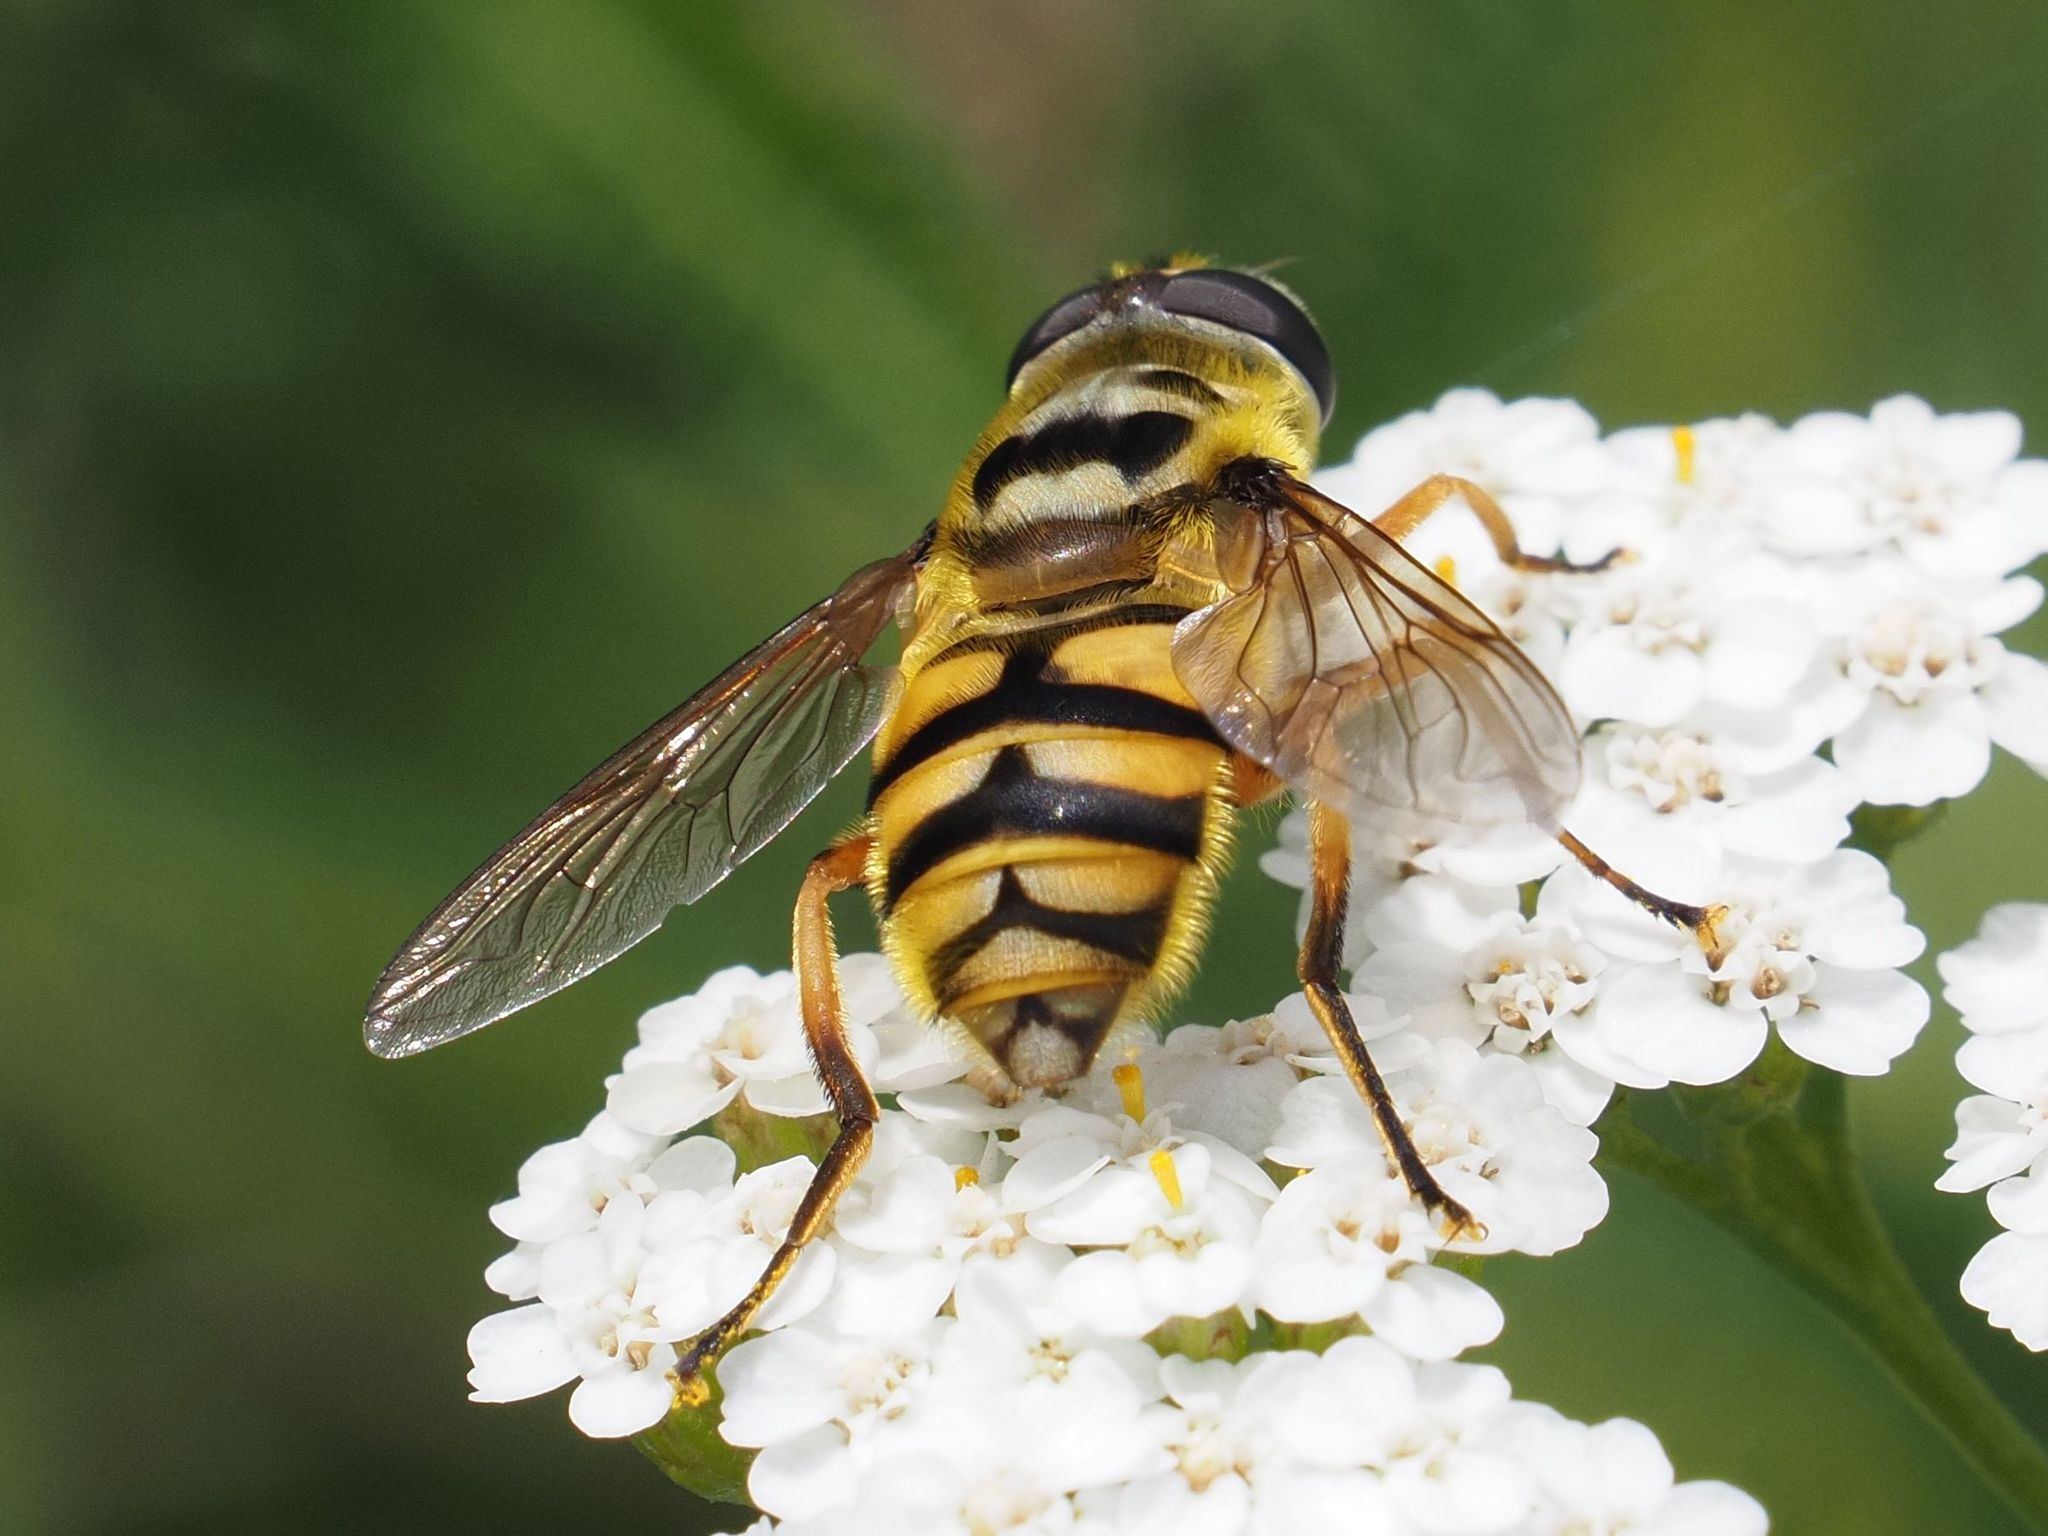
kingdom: Animalia
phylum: Arthropoda
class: Insecta
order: Diptera
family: Syrphidae
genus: Myathropa
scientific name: Myathropa florea
